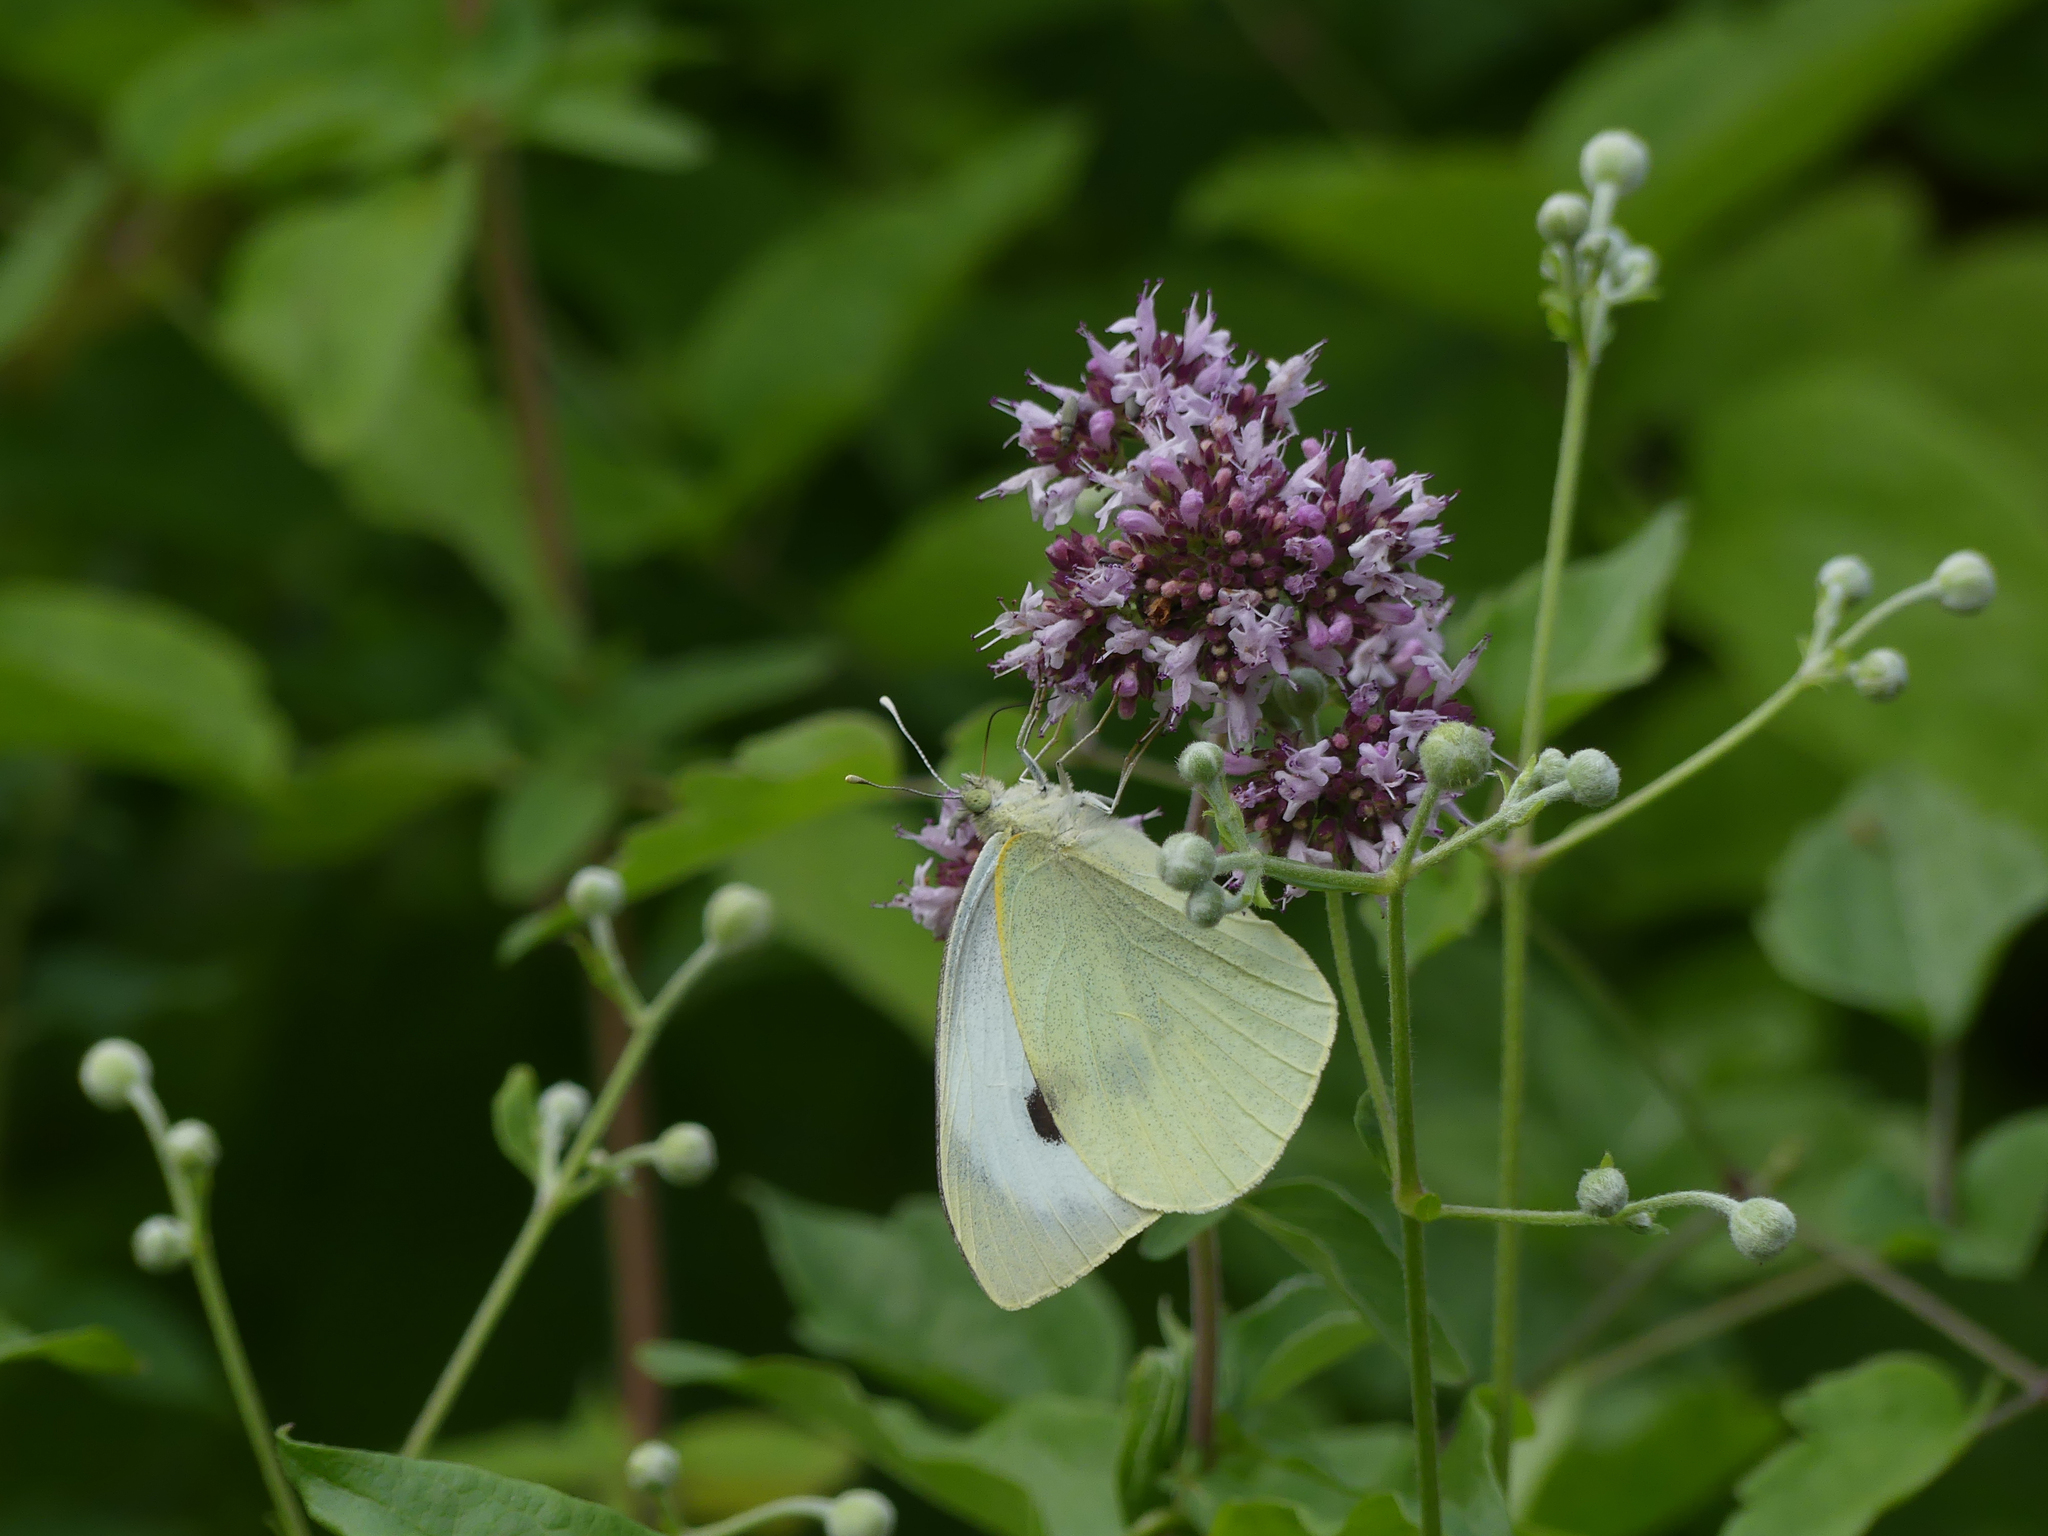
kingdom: Animalia
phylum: Arthropoda
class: Insecta
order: Lepidoptera
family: Pieridae
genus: Pieris
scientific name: Pieris brassicae
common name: Large white
